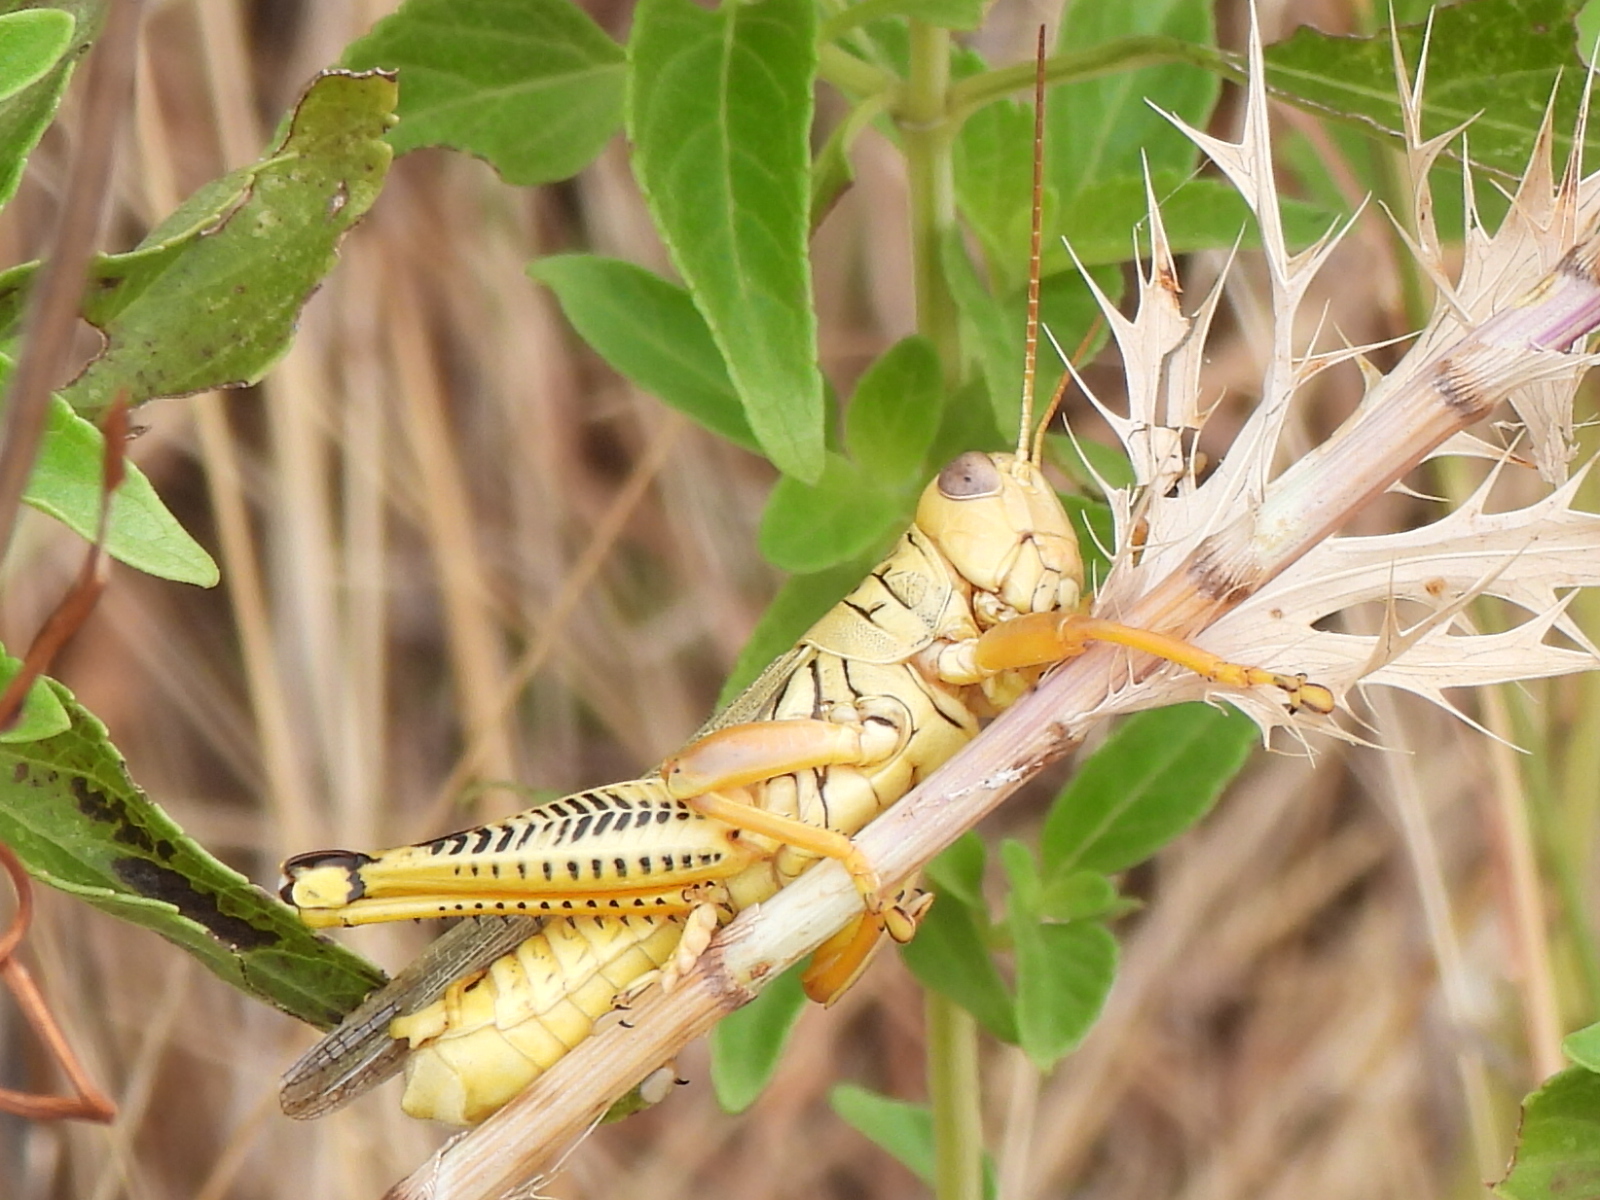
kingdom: Animalia
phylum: Arthropoda
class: Insecta
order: Orthoptera
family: Acrididae
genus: Melanoplus
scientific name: Melanoplus differentialis
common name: Differential grasshopper
